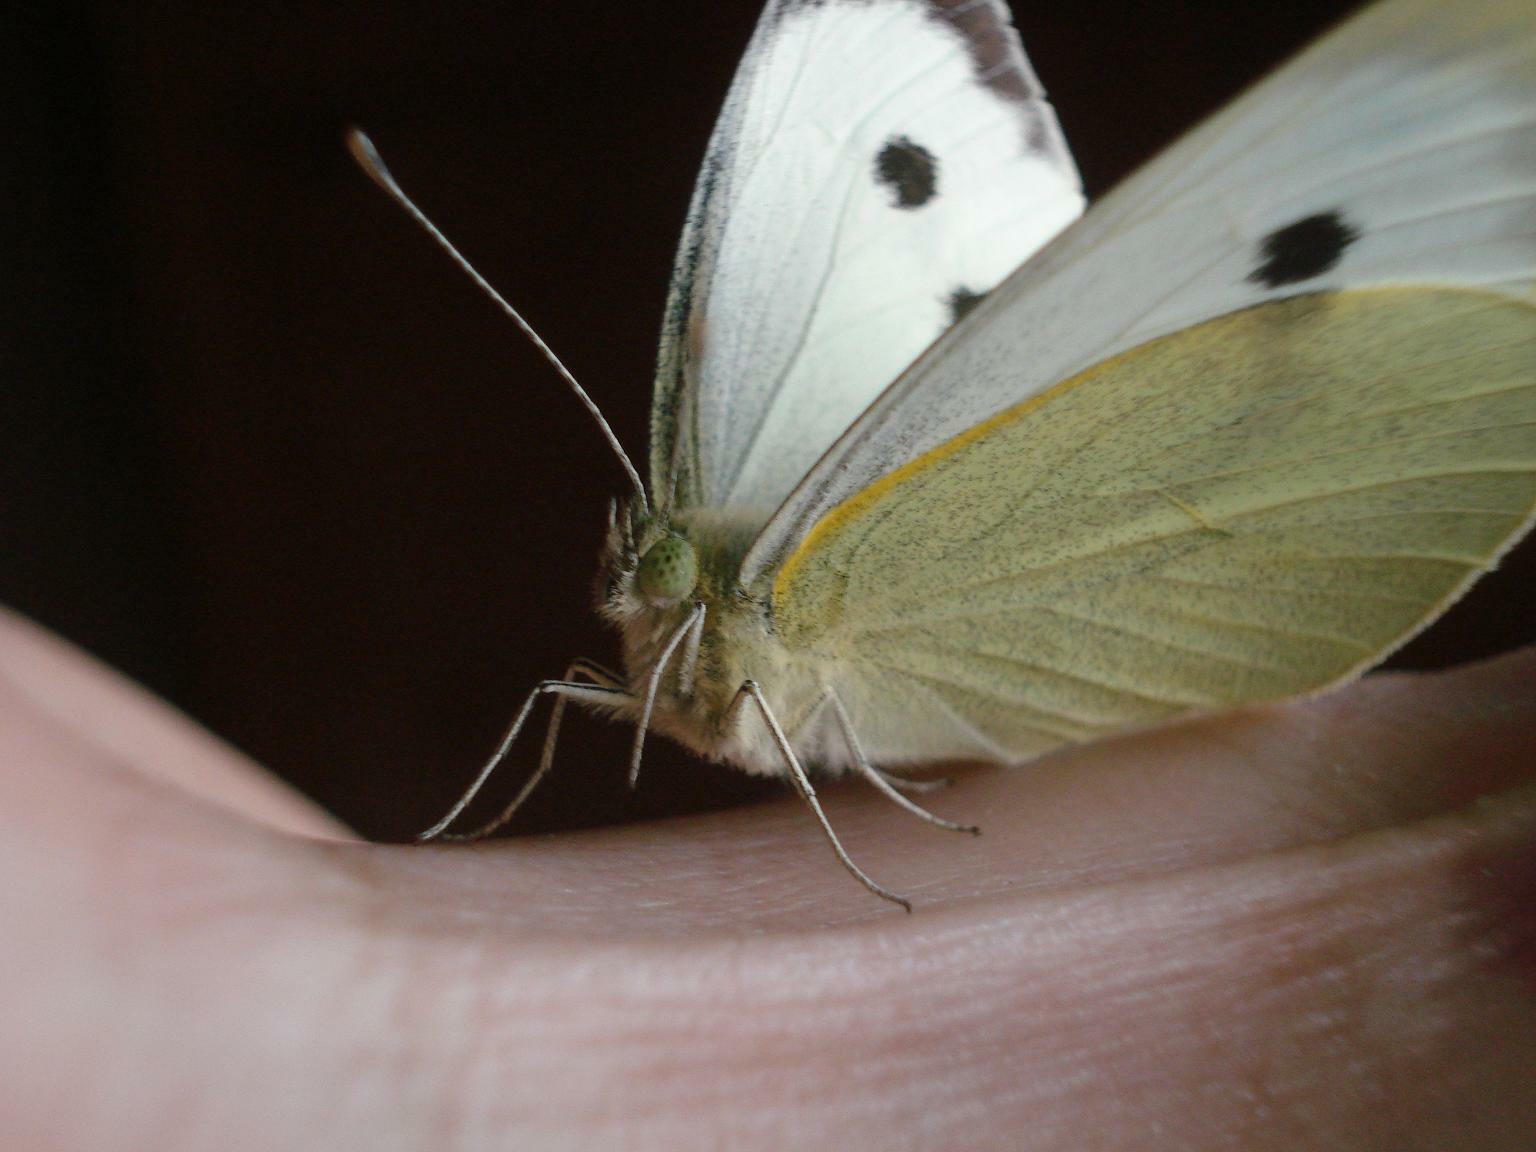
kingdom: Animalia
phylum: Arthropoda
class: Insecta
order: Lepidoptera
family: Pieridae
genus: Pieris
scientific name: Pieris brassicae
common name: Large white
